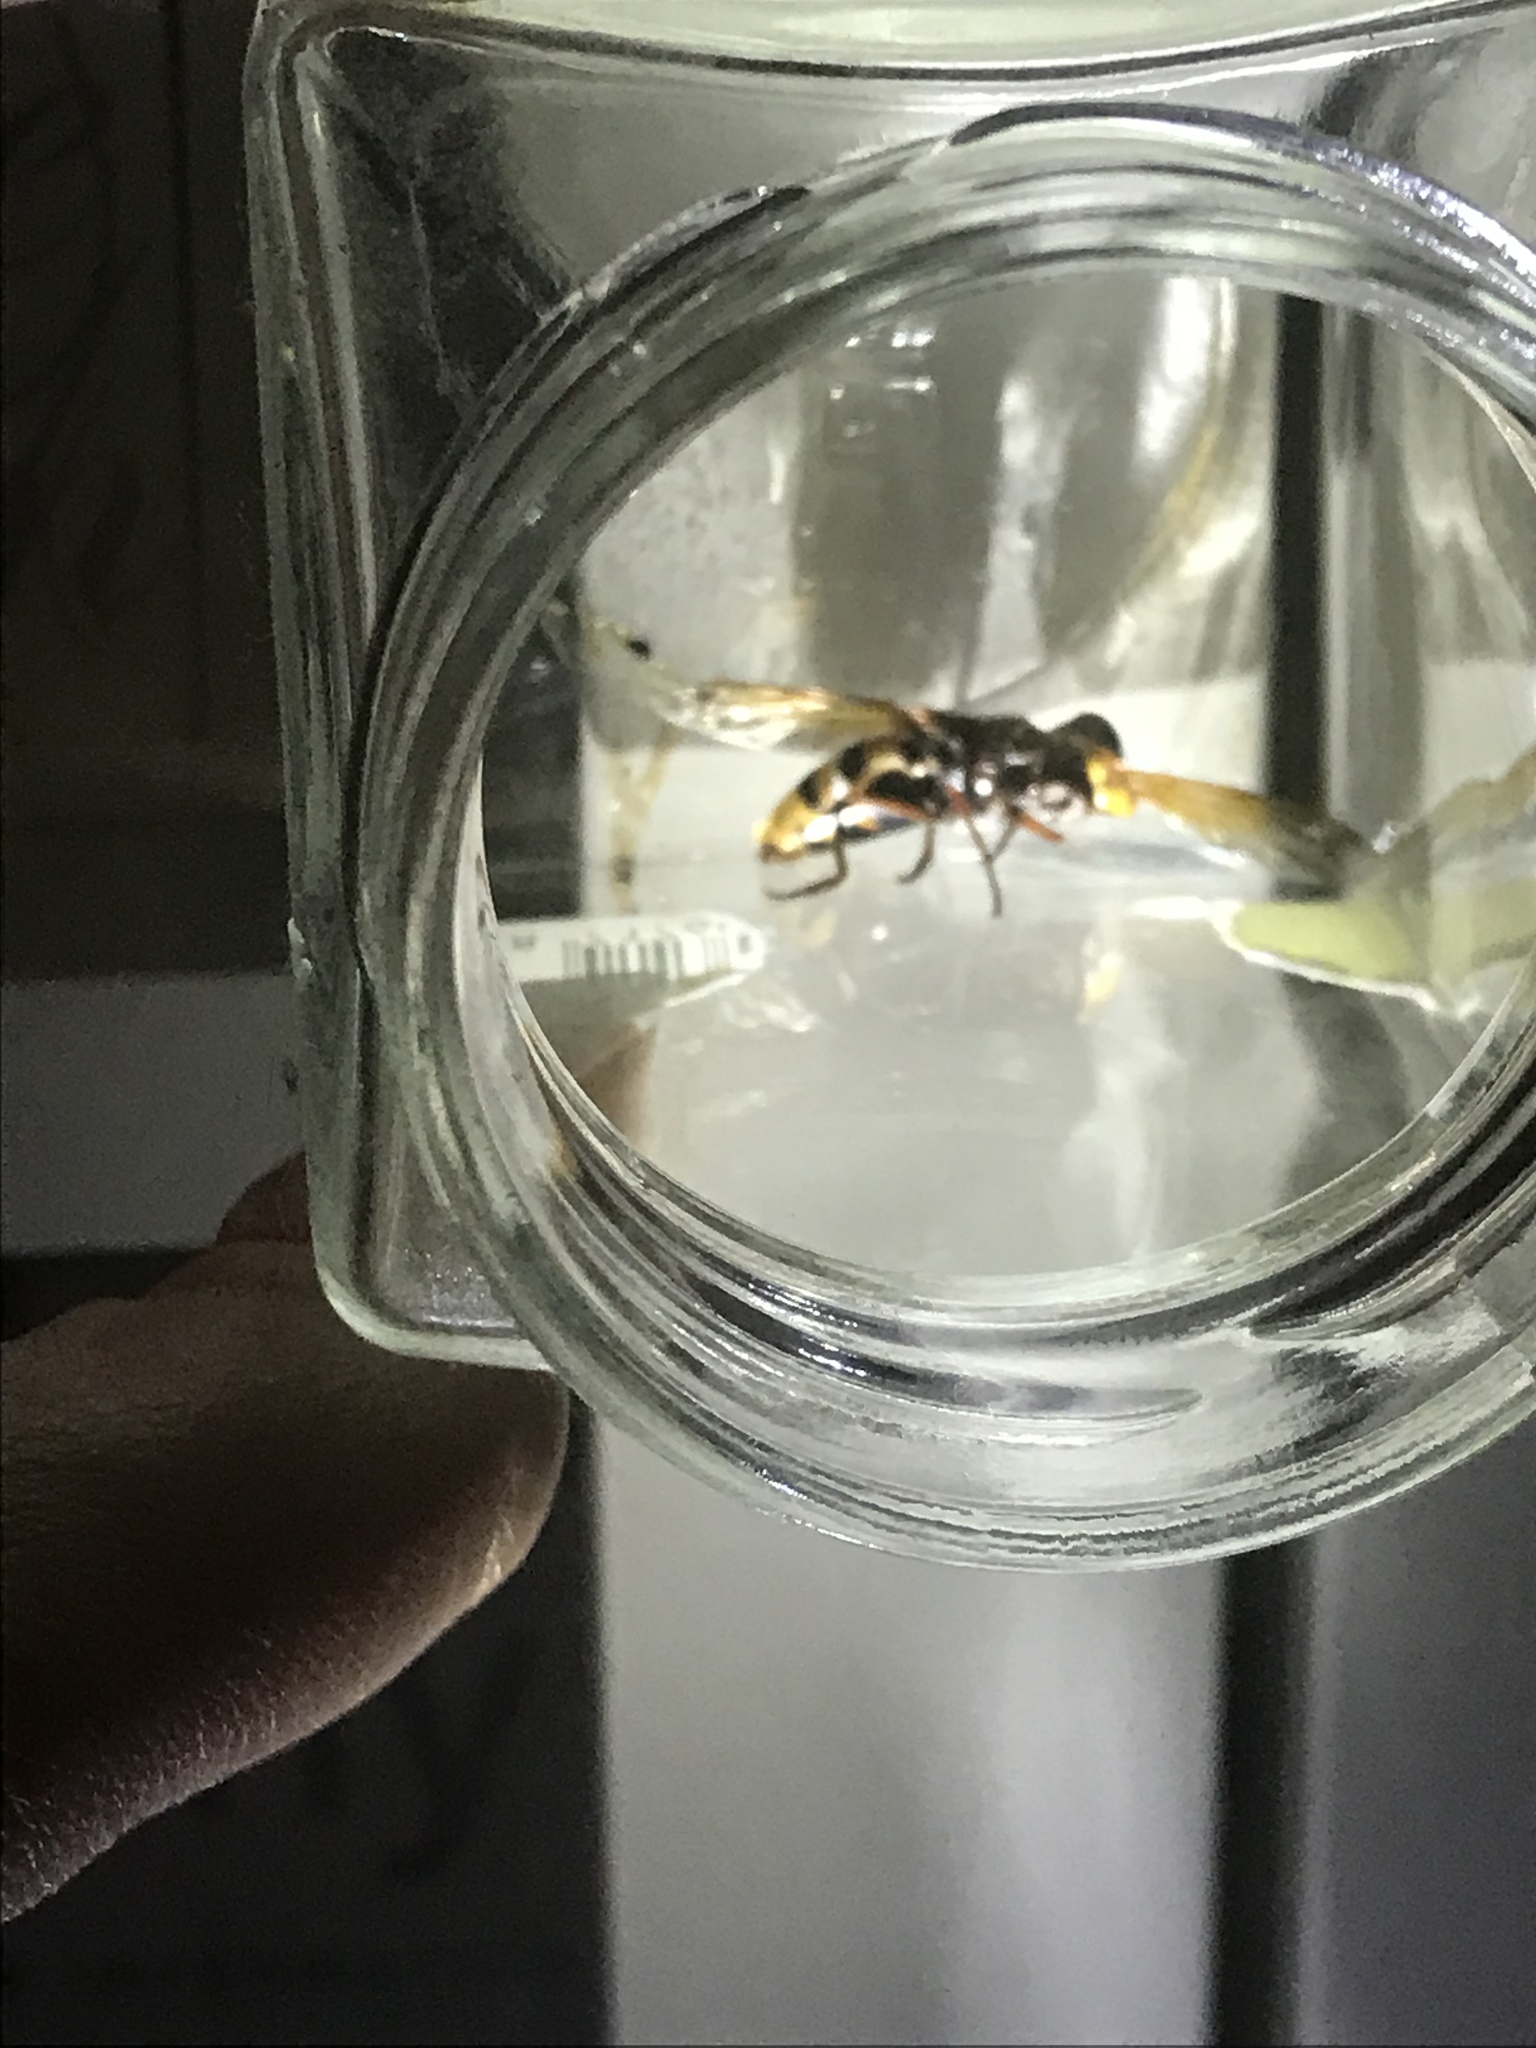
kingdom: Animalia
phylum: Arthropoda
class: Insecta
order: Diptera
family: Syrphidae
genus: Volucella
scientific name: Volucella zonaria
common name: Hornet hoverfly
